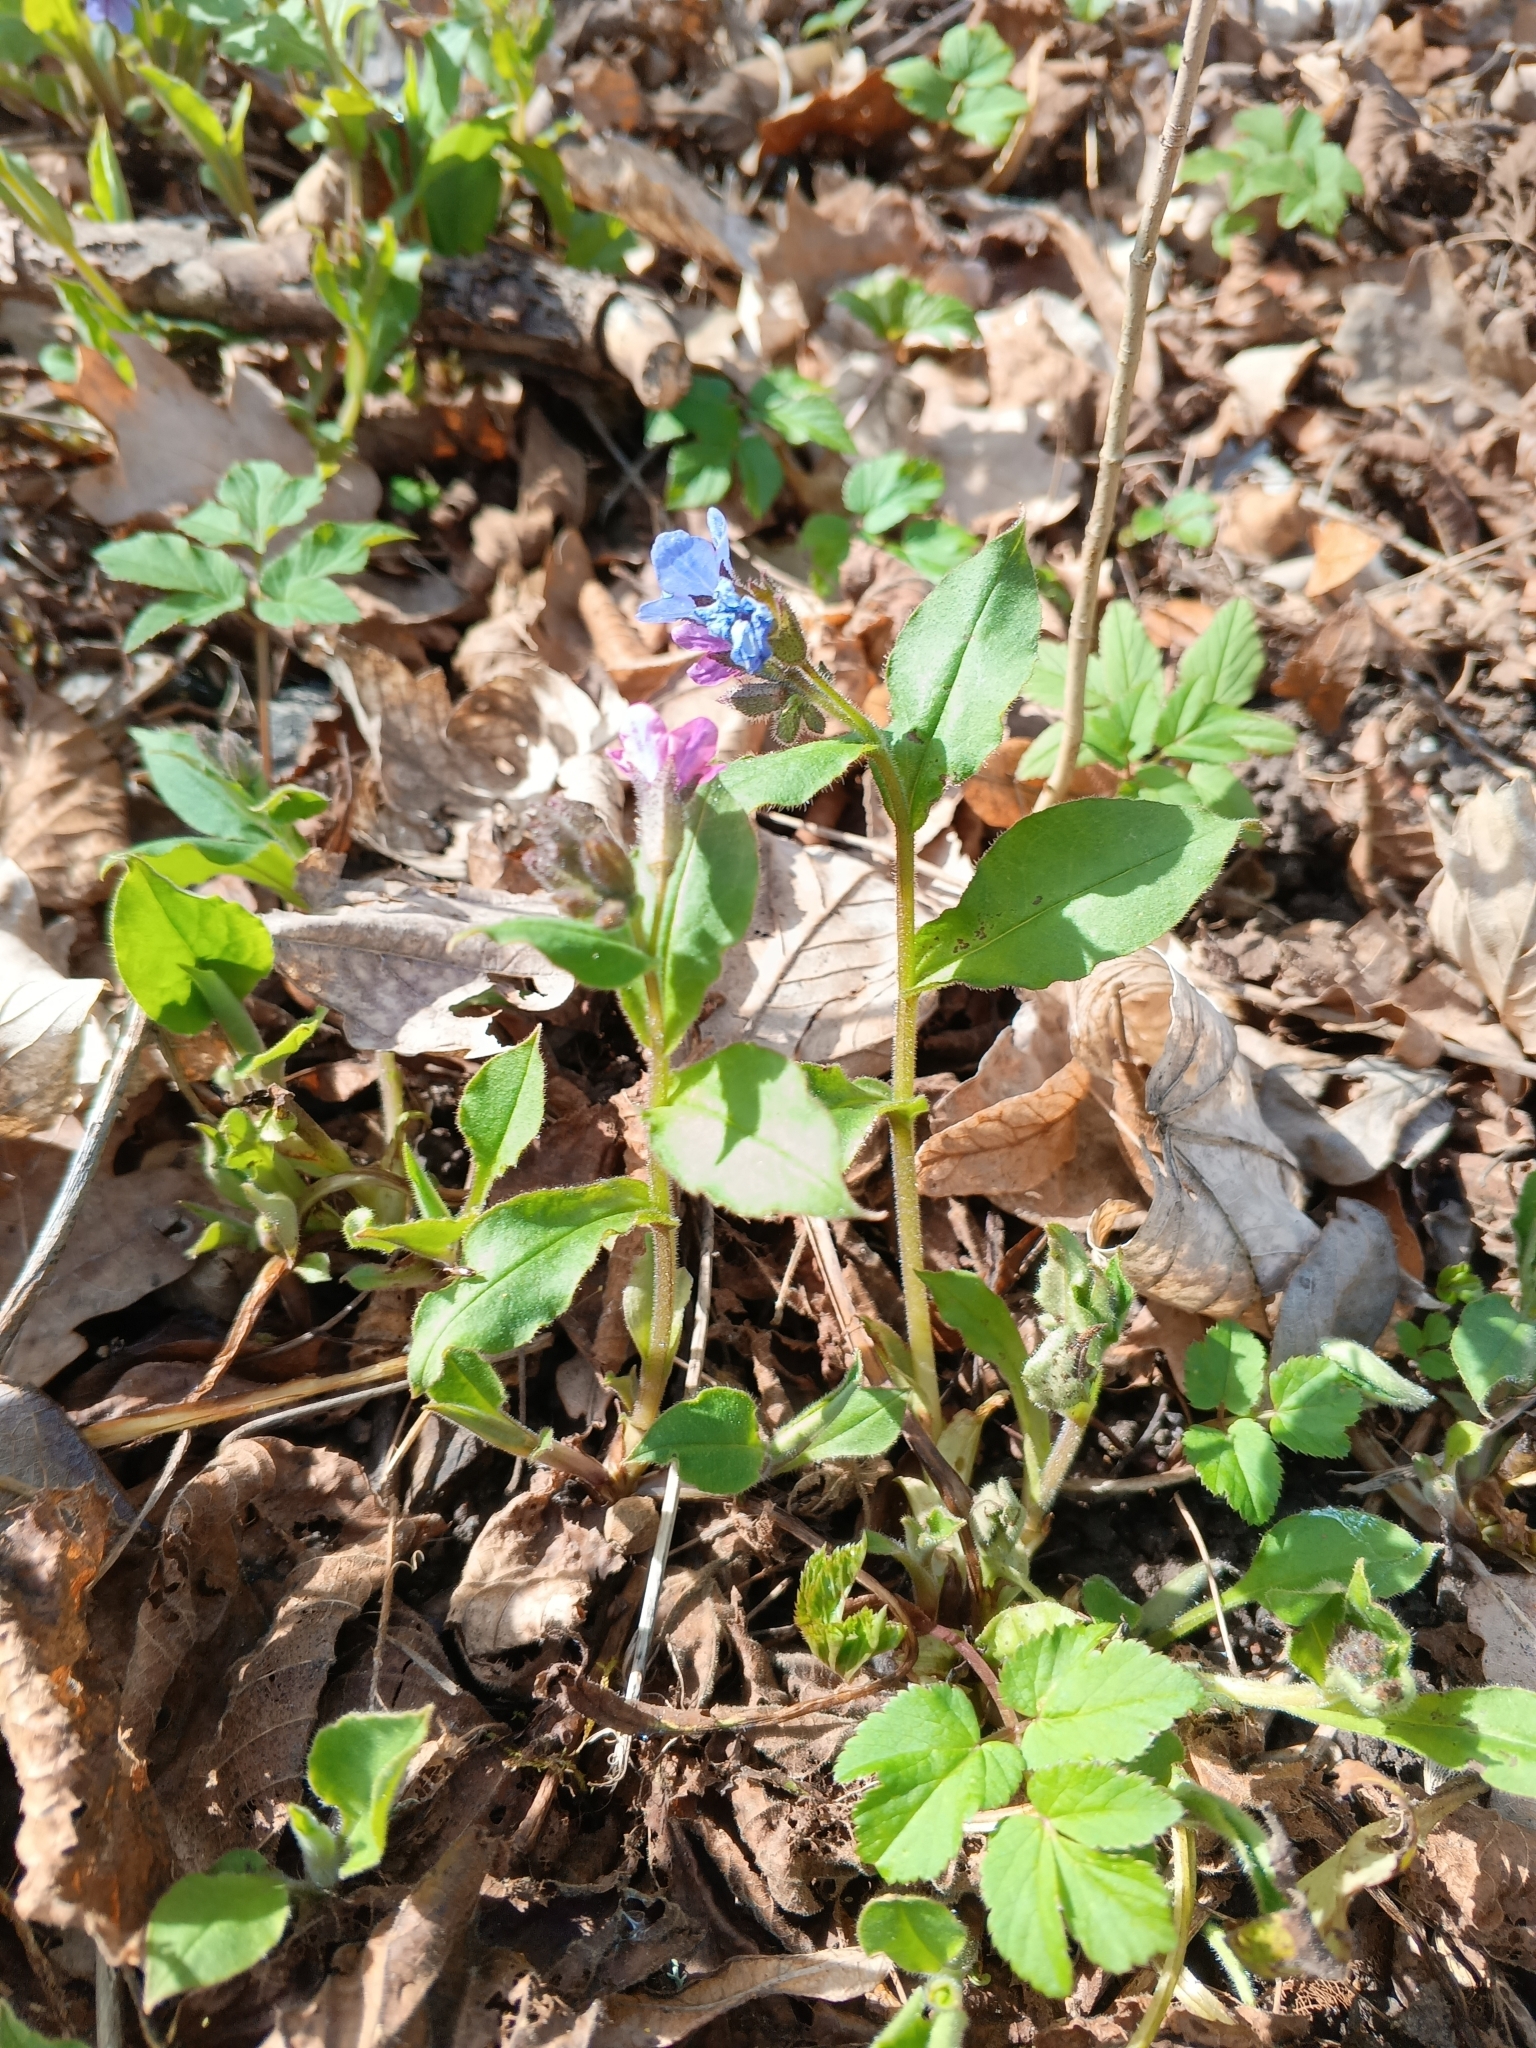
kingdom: Plantae
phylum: Tracheophyta
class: Magnoliopsida
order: Boraginales
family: Boraginaceae
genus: Pulmonaria
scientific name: Pulmonaria obscura
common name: Suffolk lungwort
